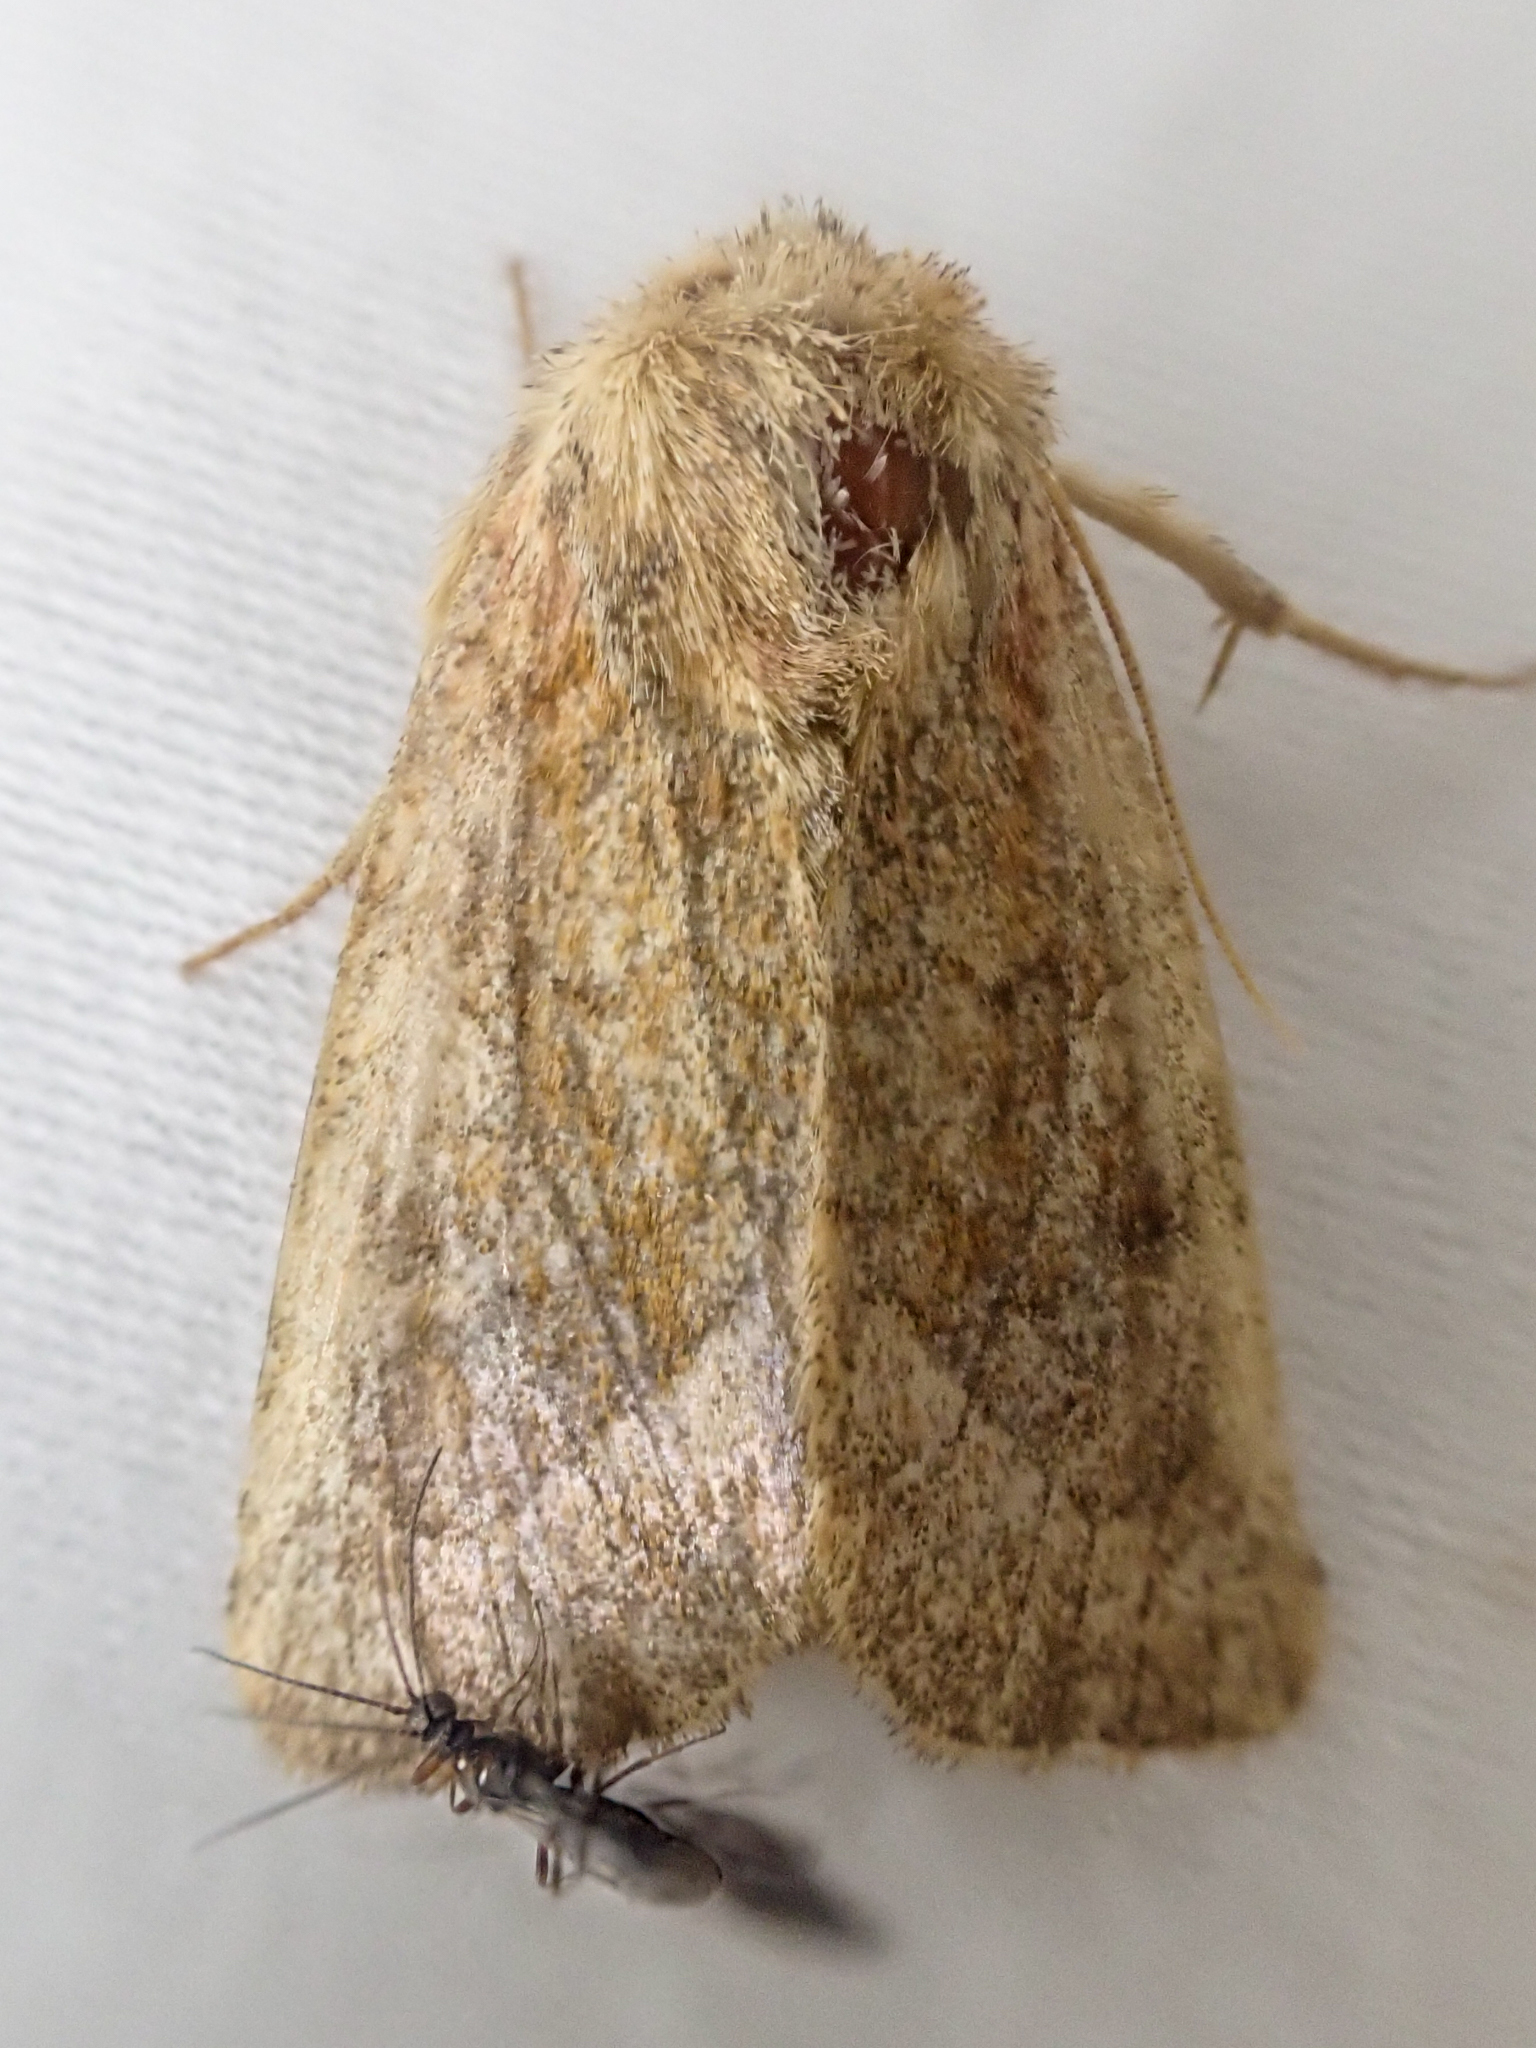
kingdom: Animalia
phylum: Arthropoda
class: Insecta
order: Lepidoptera
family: Noctuidae
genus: Lacinipolia
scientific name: Lacinipolia lorea
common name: Bridled arches moth
